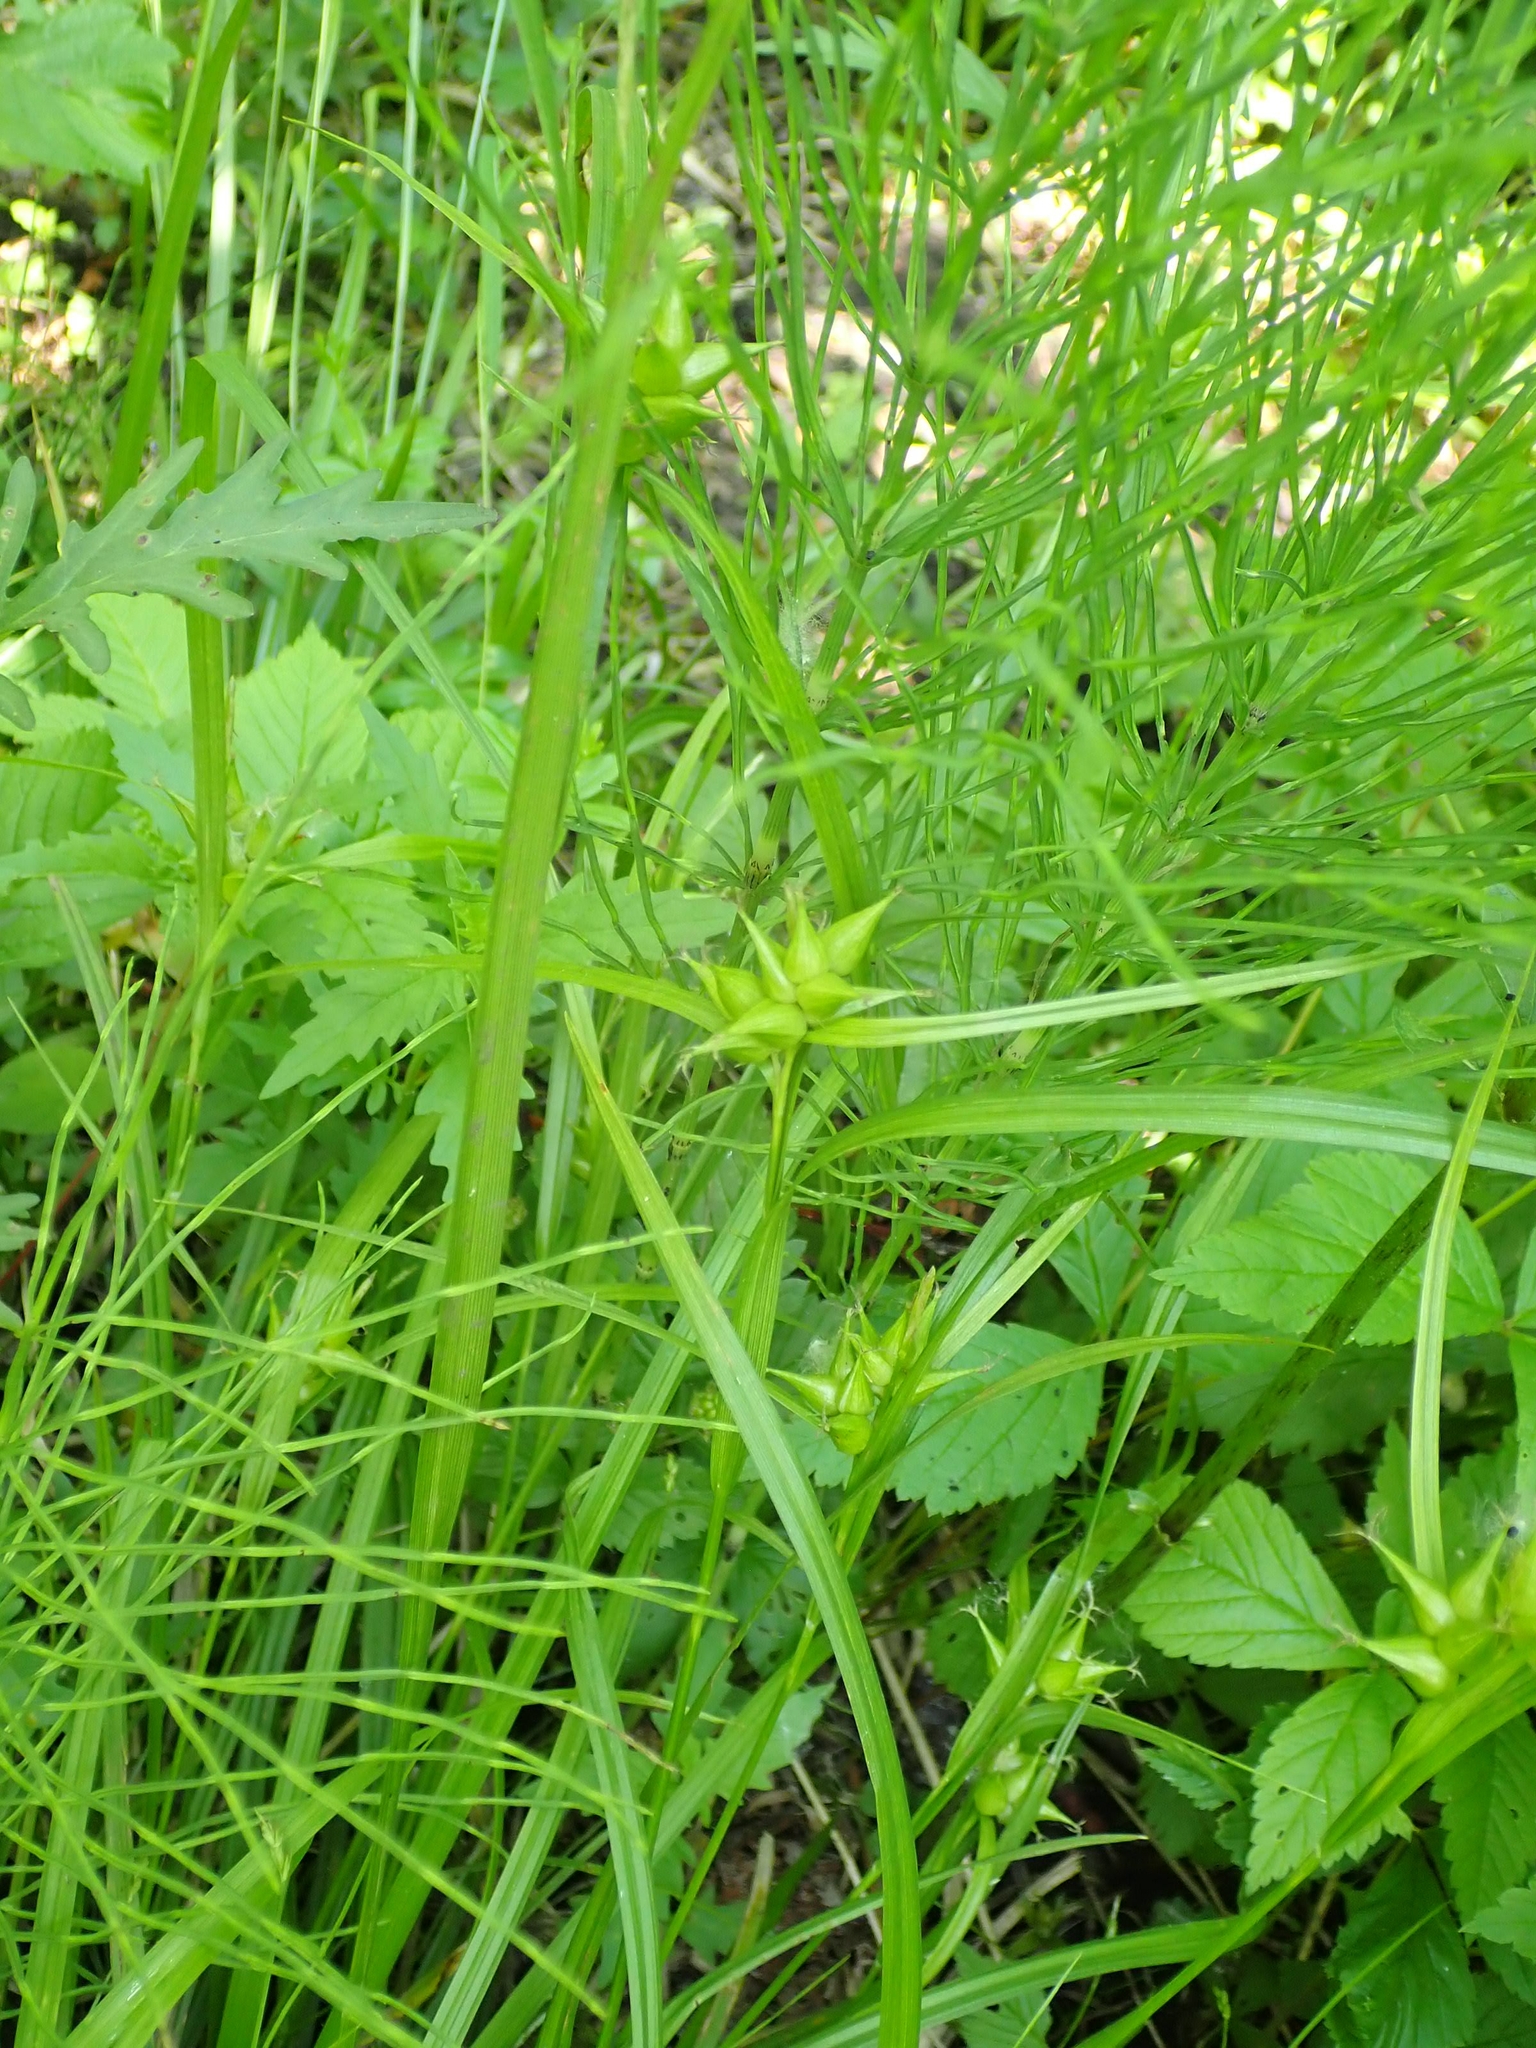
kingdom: Plantae
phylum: Tracheophyta
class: Liliopsida
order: Poales
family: Cyperaceae
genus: Carex
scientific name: Carex intumescens
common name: Greater bladder sedge
